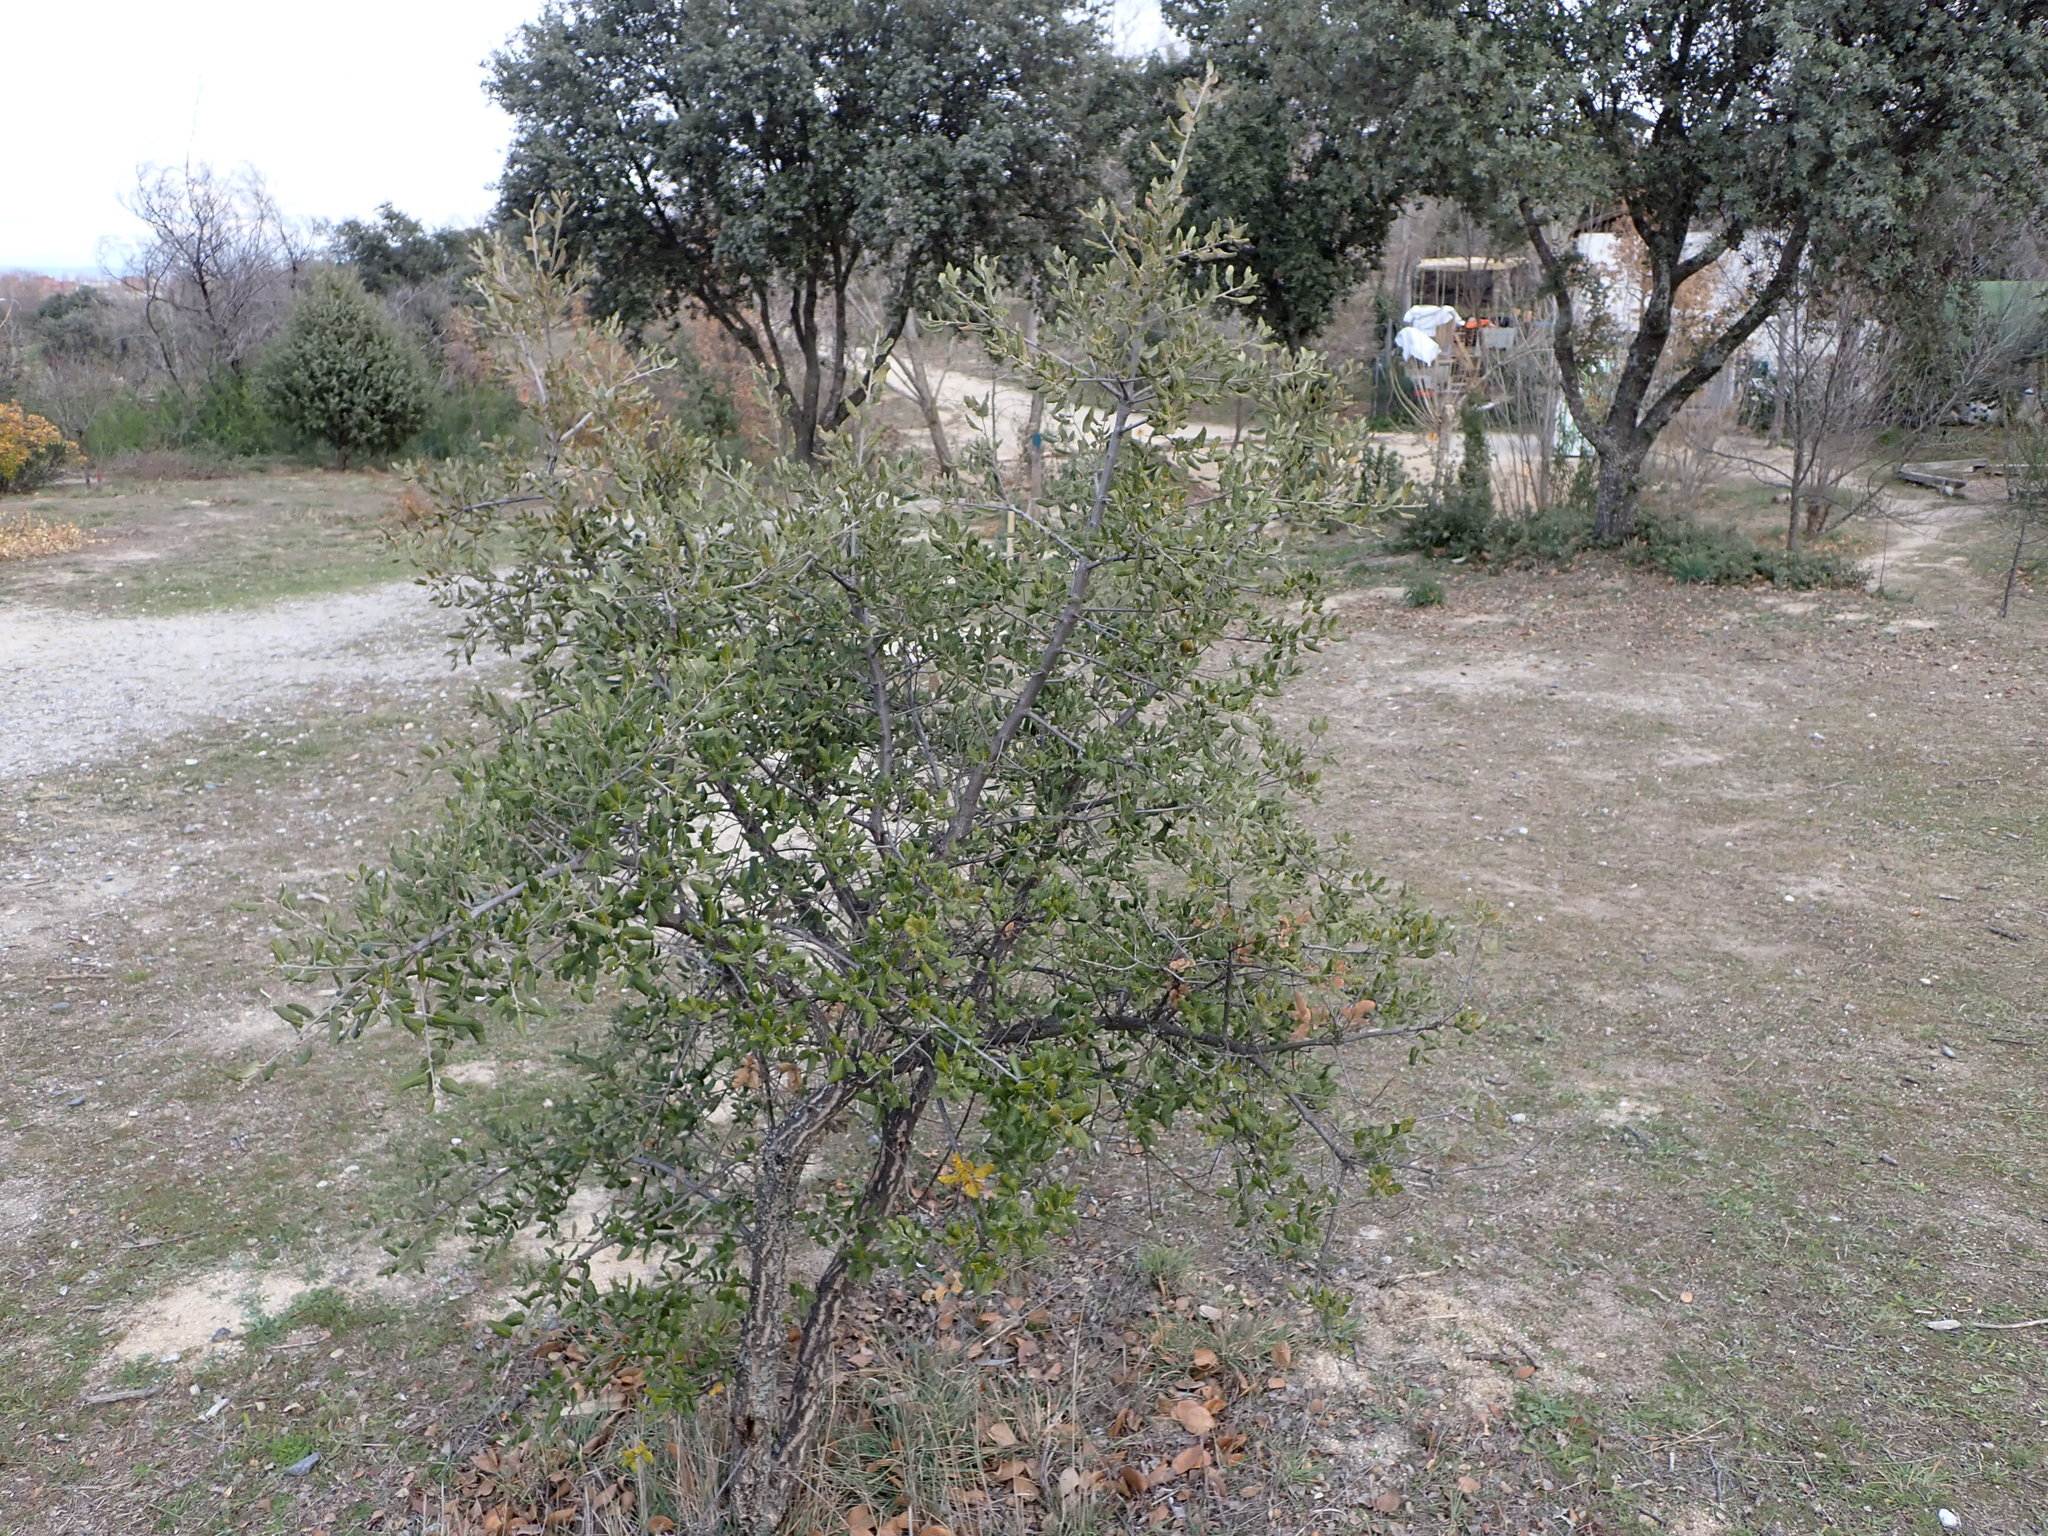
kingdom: Plantae
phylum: Tracheophyta
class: Magnoliopsida
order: Fagales
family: Fagaceae
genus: Quercus
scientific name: Quercus suber
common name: Cork oak
